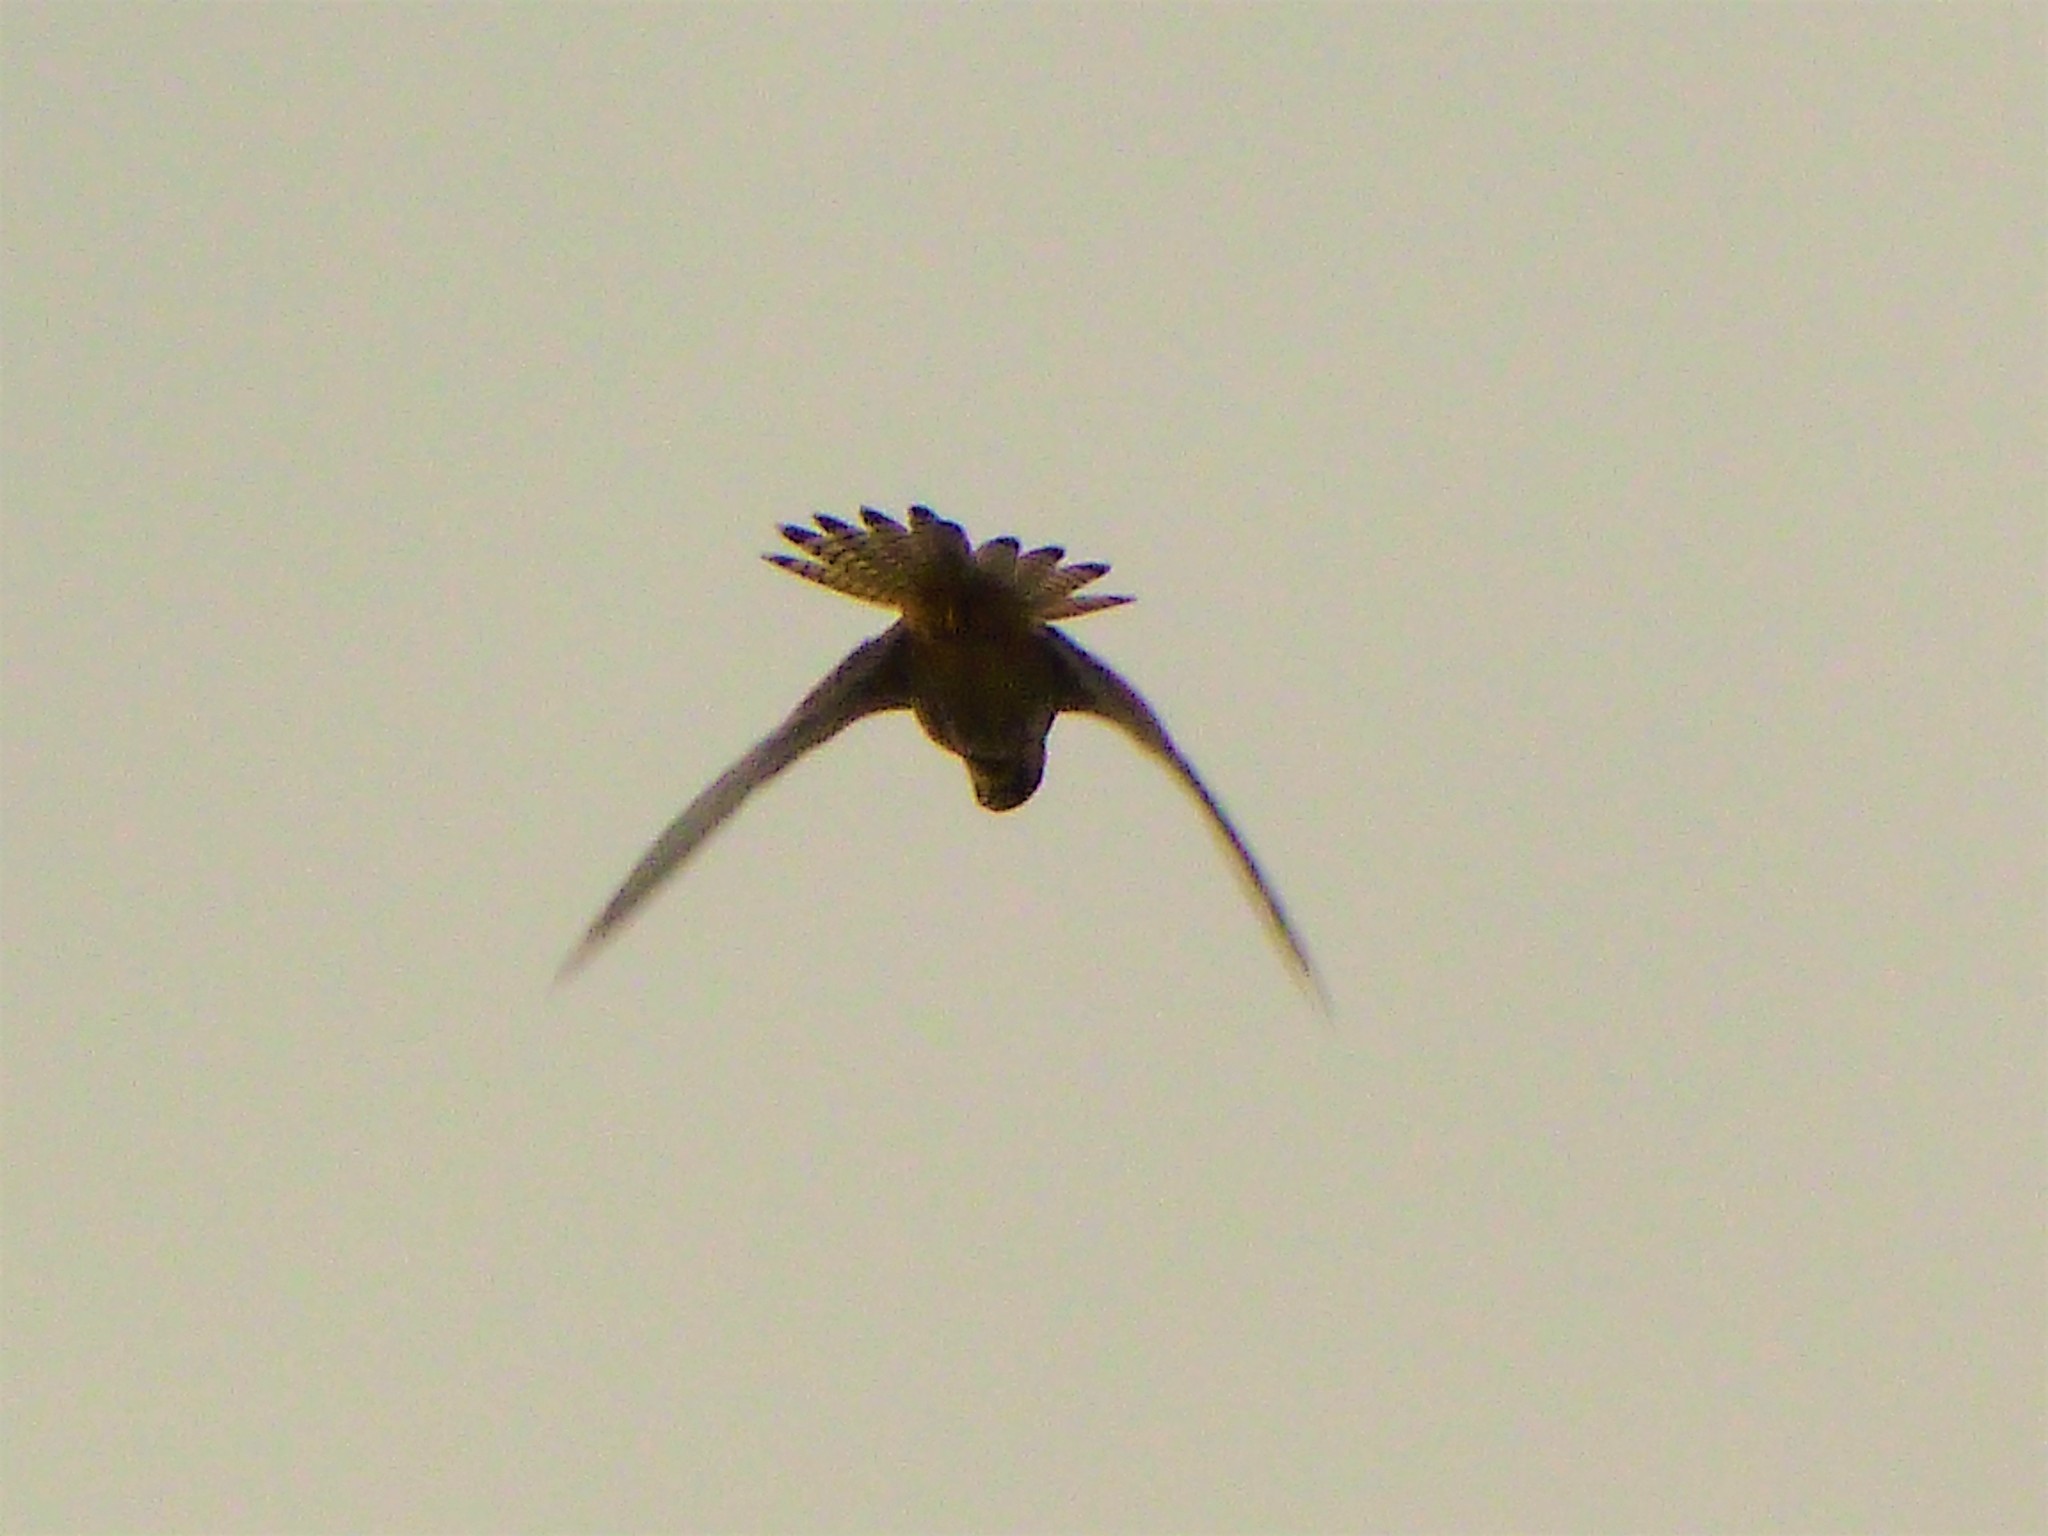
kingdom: Animalia
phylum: Chordata
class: Aves
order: Falconiformes
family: Falconidae
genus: Falco
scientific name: Falco tinnunculus
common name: Common kestrel
